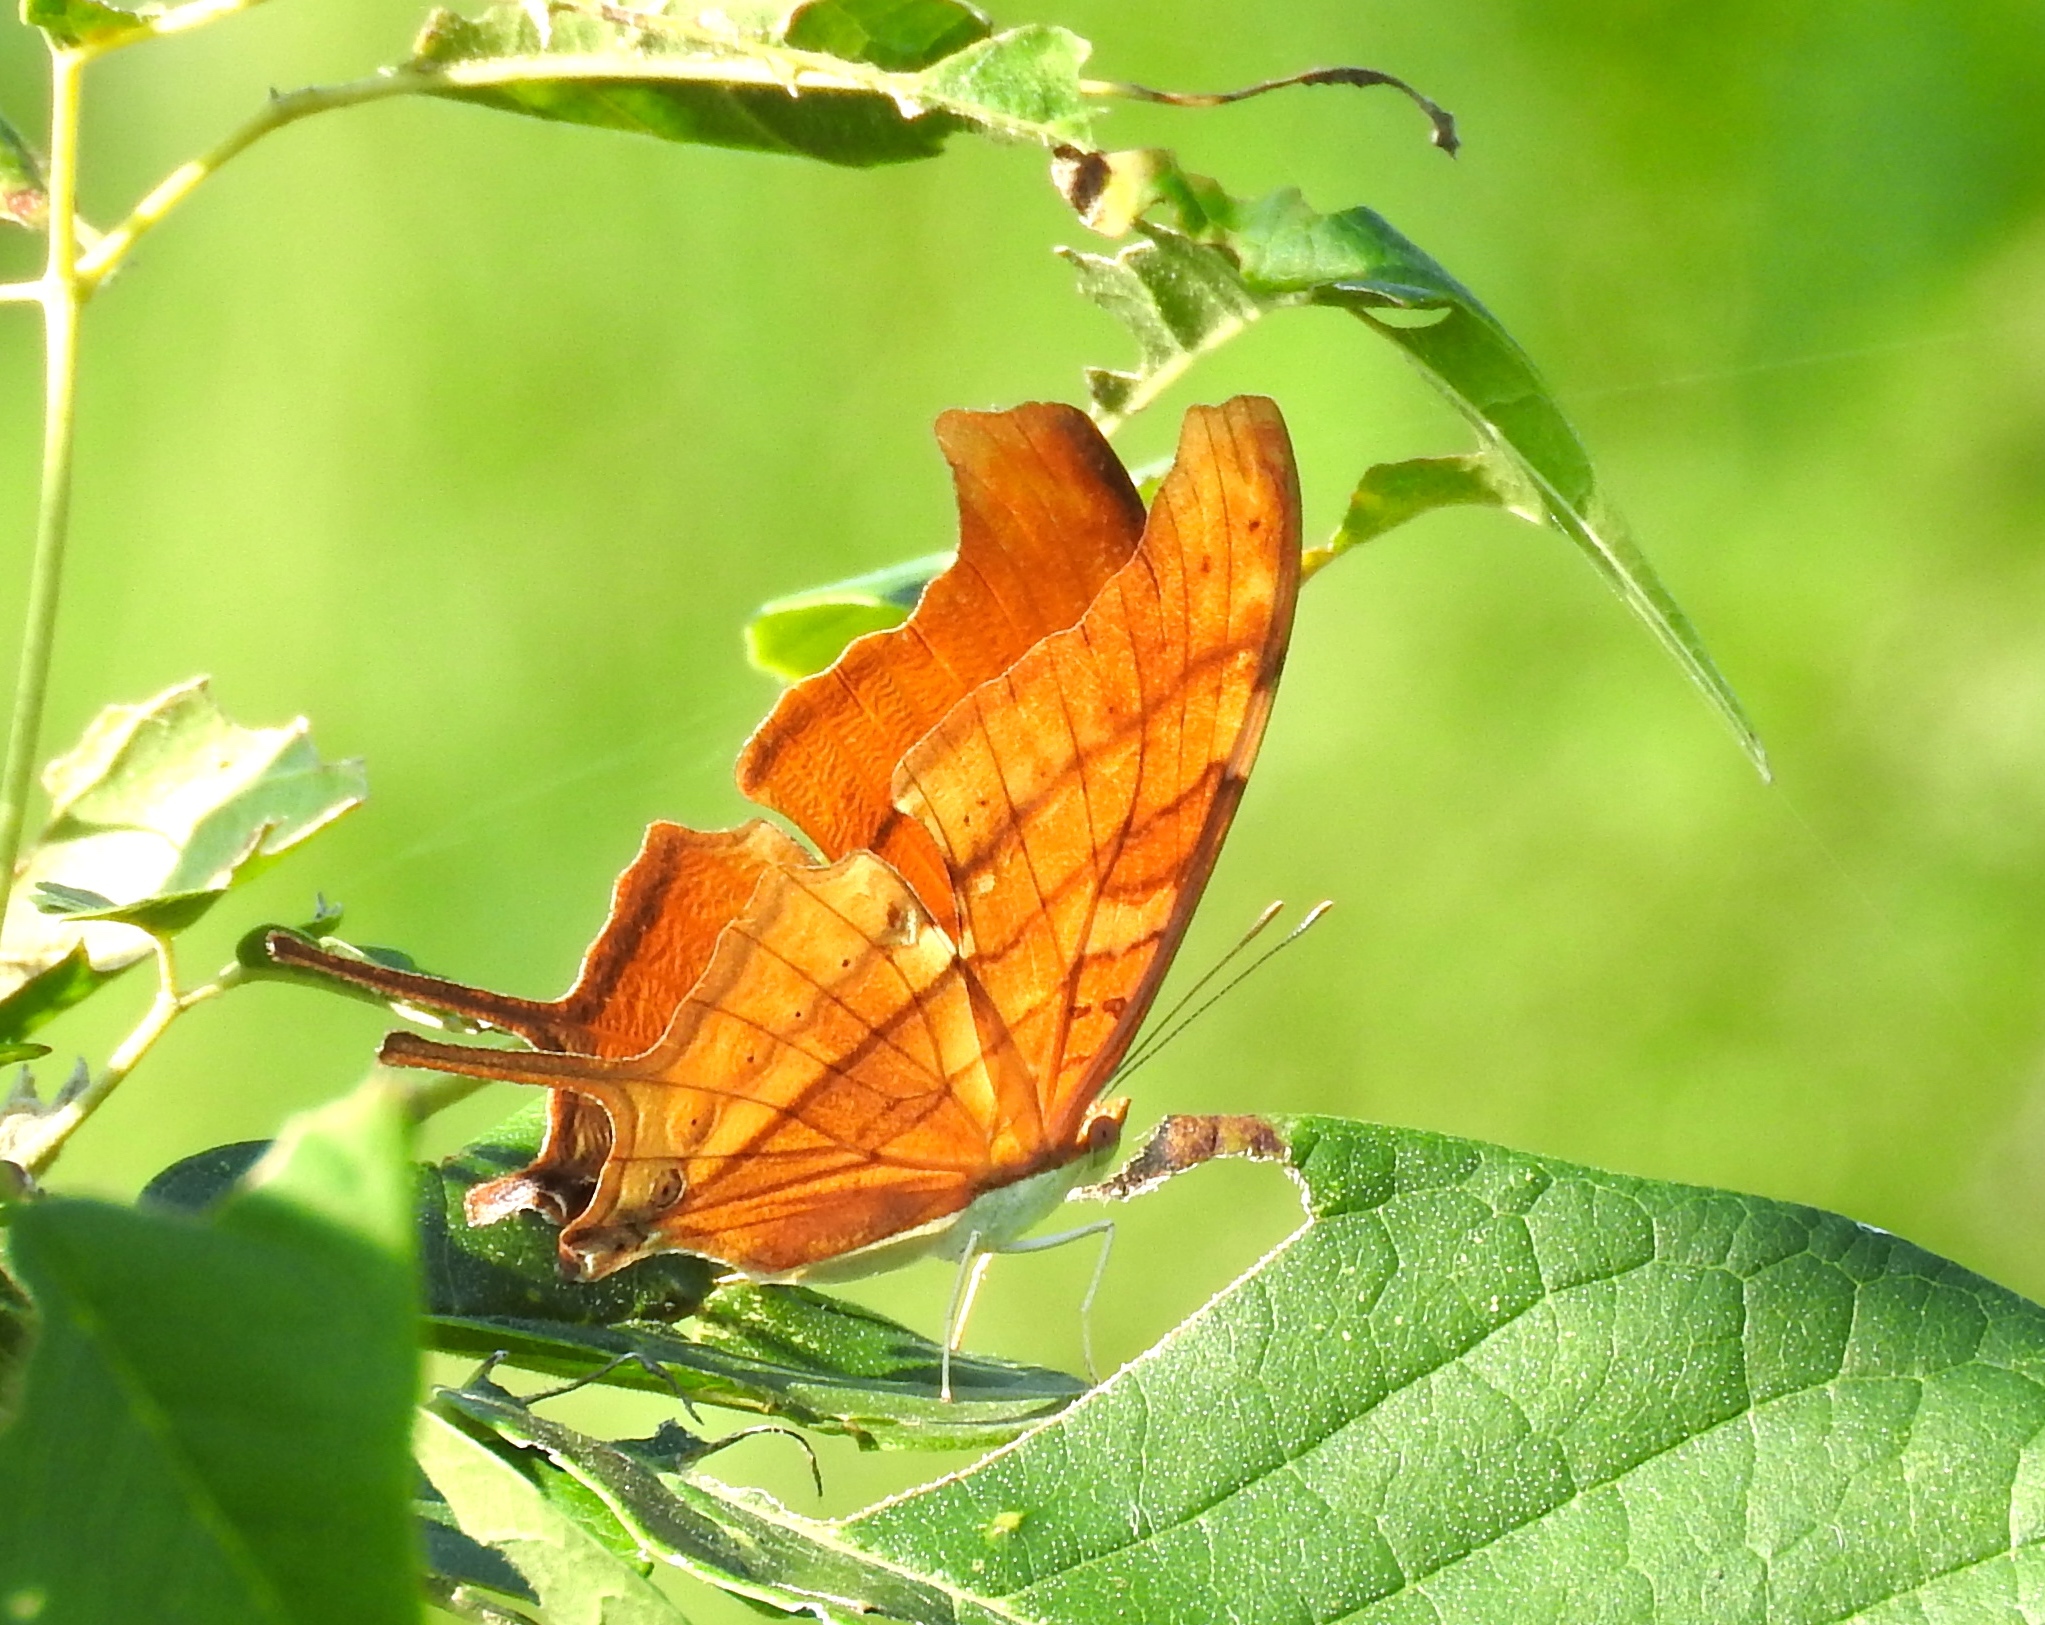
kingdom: Animalia
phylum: Arthropoda
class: Insecta
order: Lepidoptera
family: Nymphalidae
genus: Marpesia
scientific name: Marpesia petreus
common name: Red dagger wing
